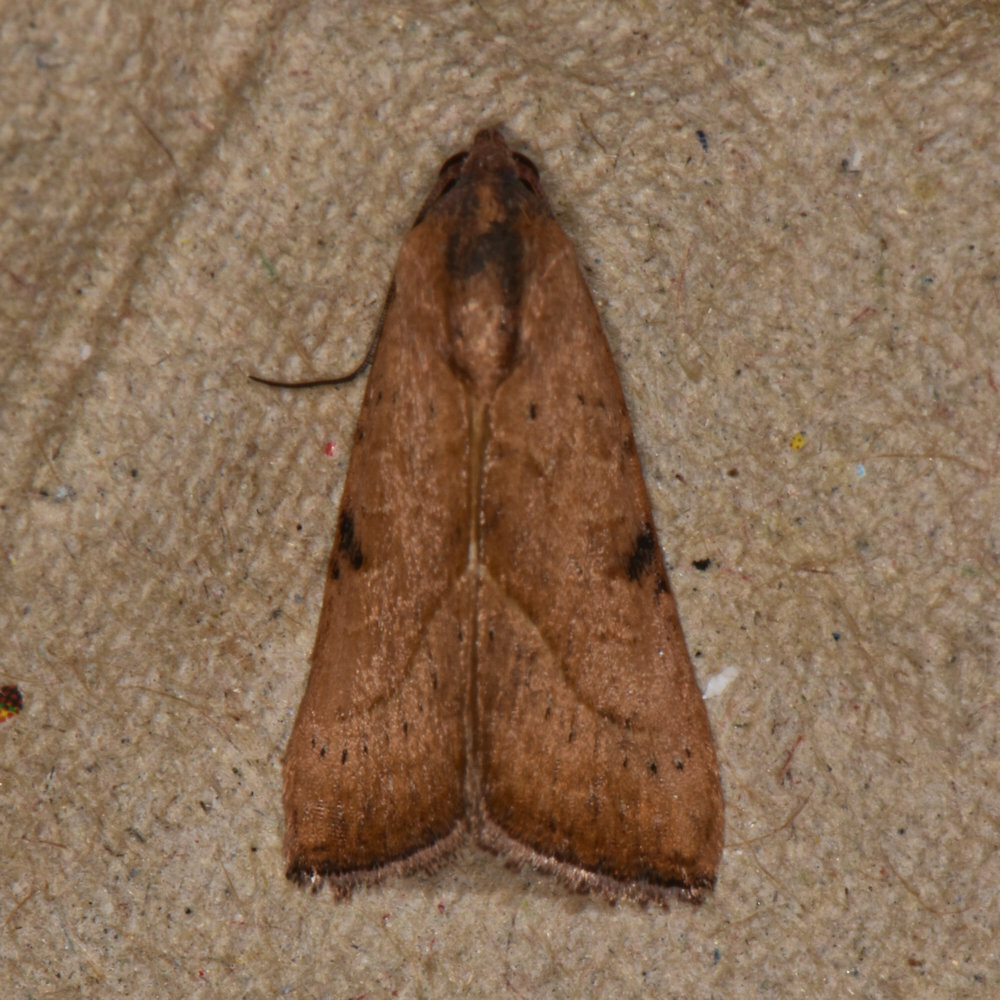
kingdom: Animalia
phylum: Arthropoda
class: Insecta
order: Lepidoptera
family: Noctuidae
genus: Galgula
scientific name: Galgula partita
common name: Wedgeling
